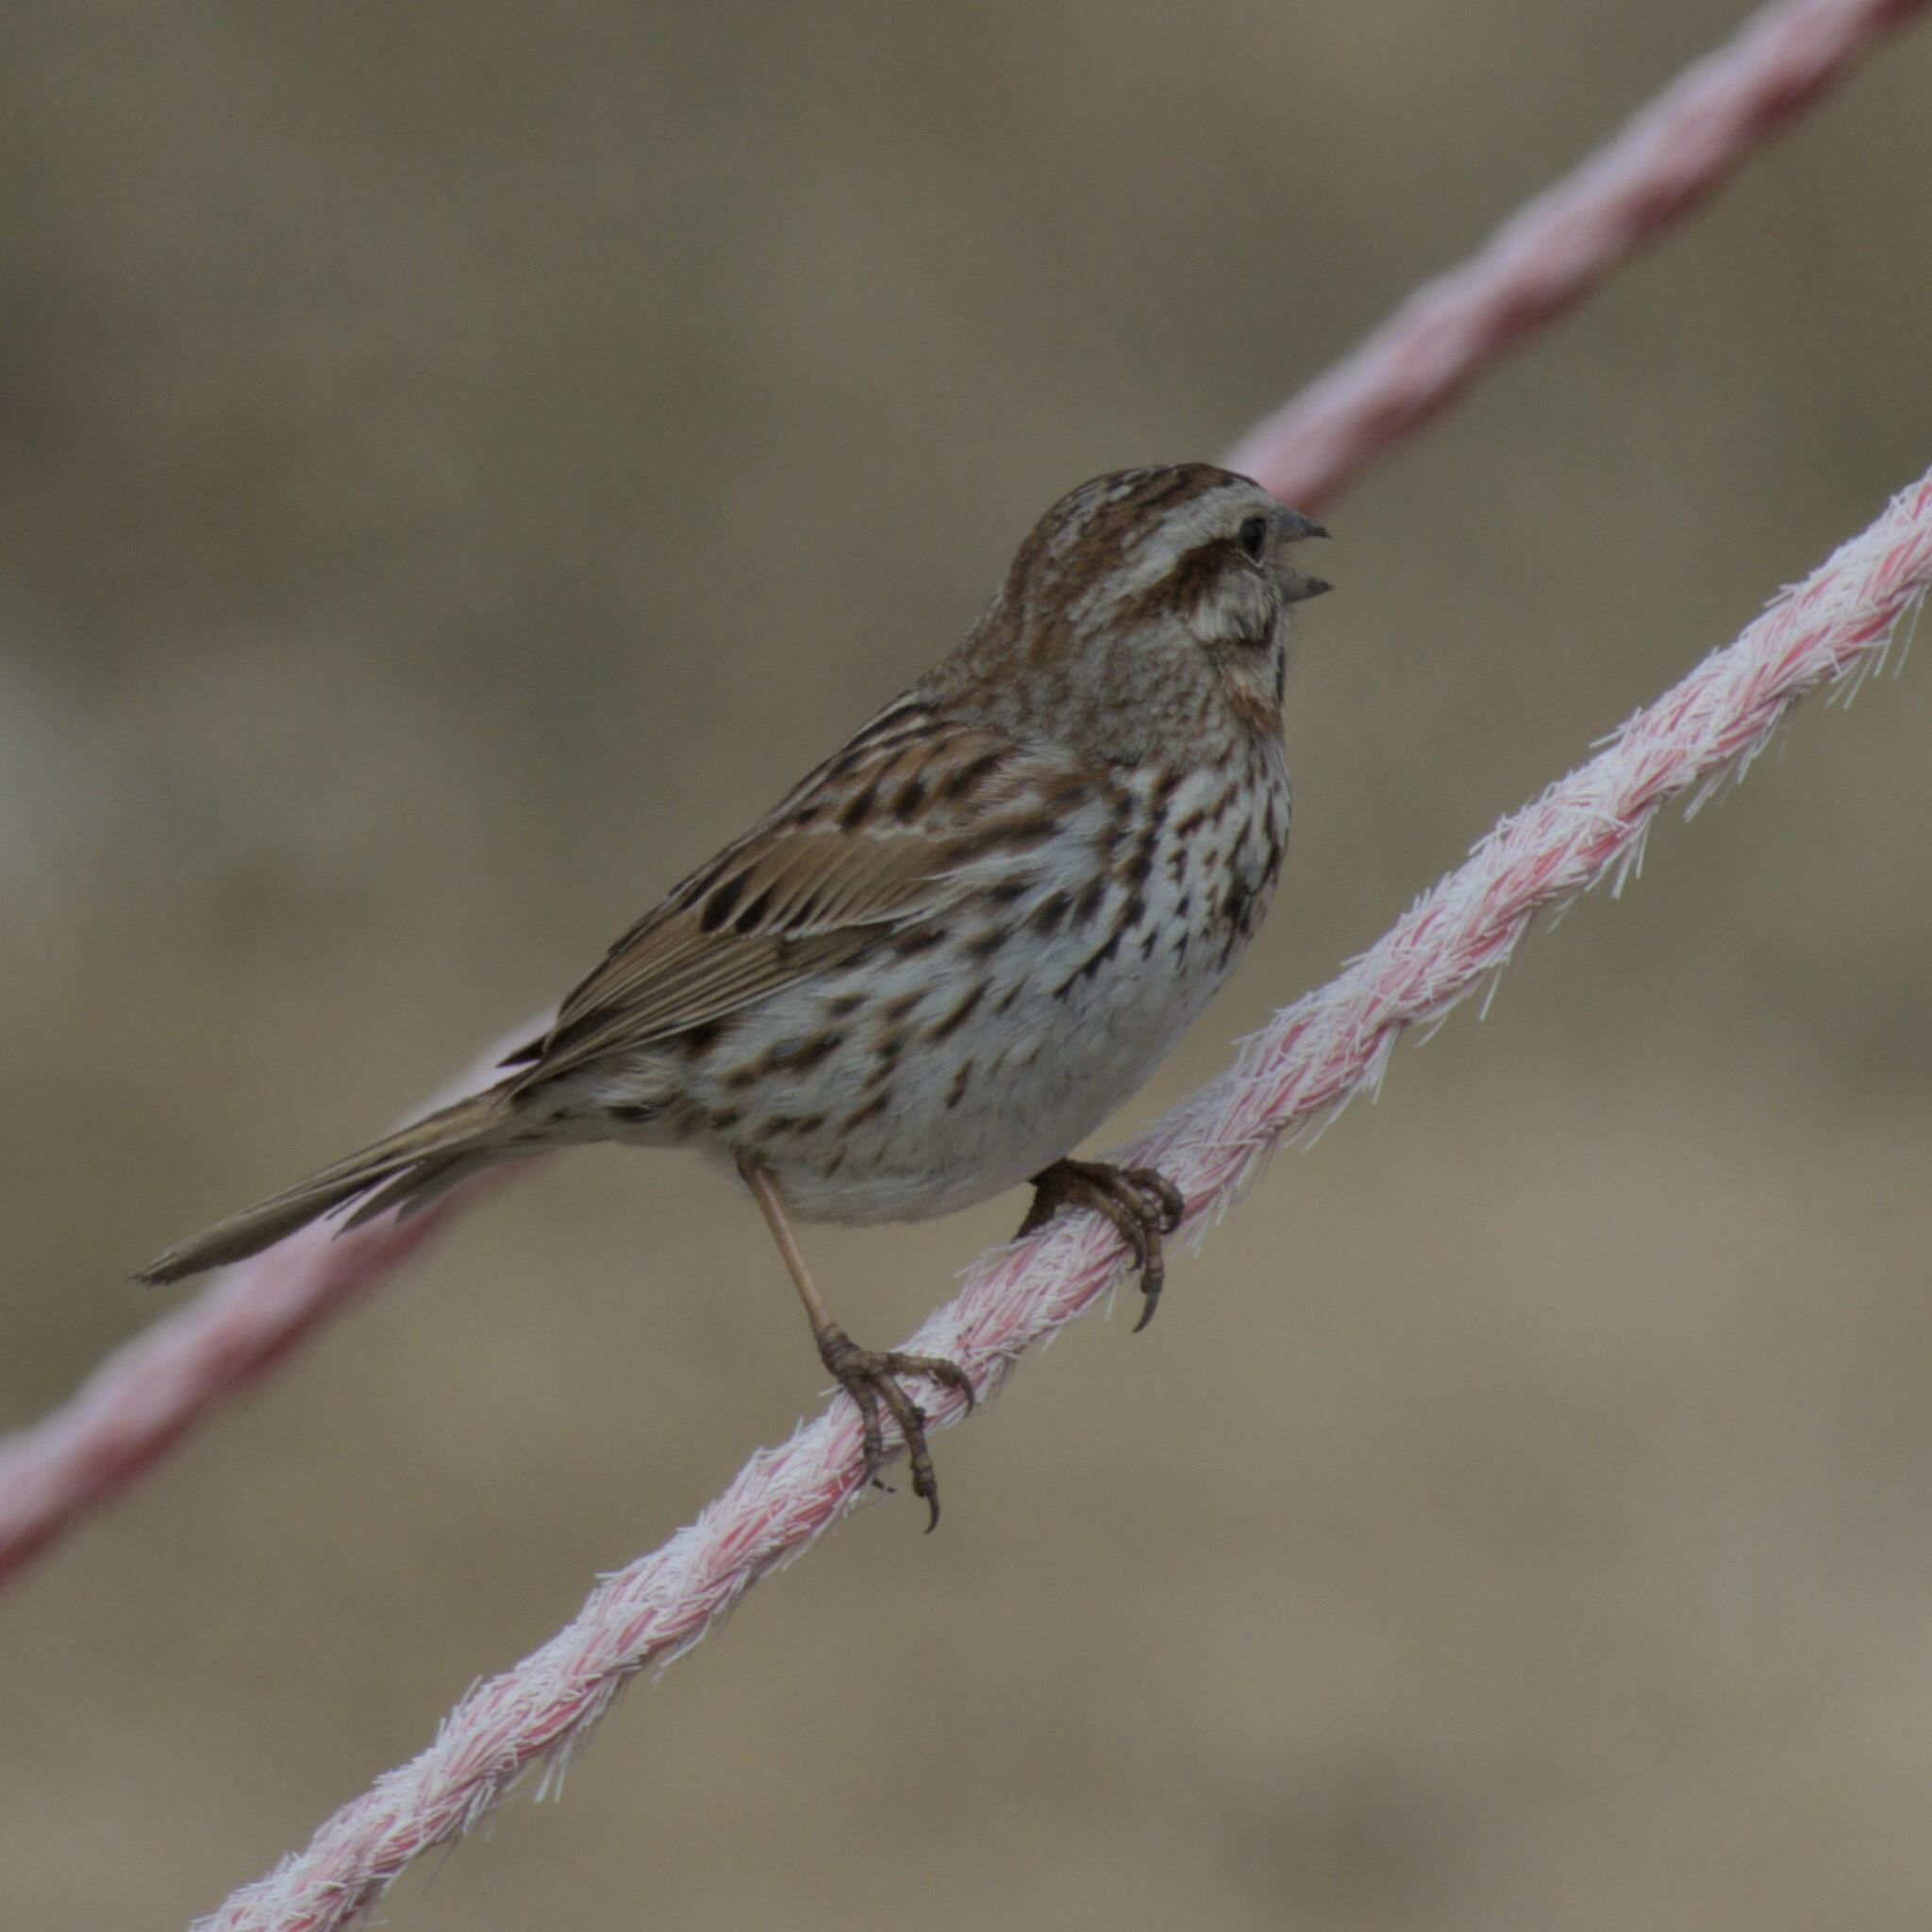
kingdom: Animalia
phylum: Chordata
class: Aves
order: Passeriformes
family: Passerellidae
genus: Melospiza
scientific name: Melospiza melodia
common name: Song sparrow
